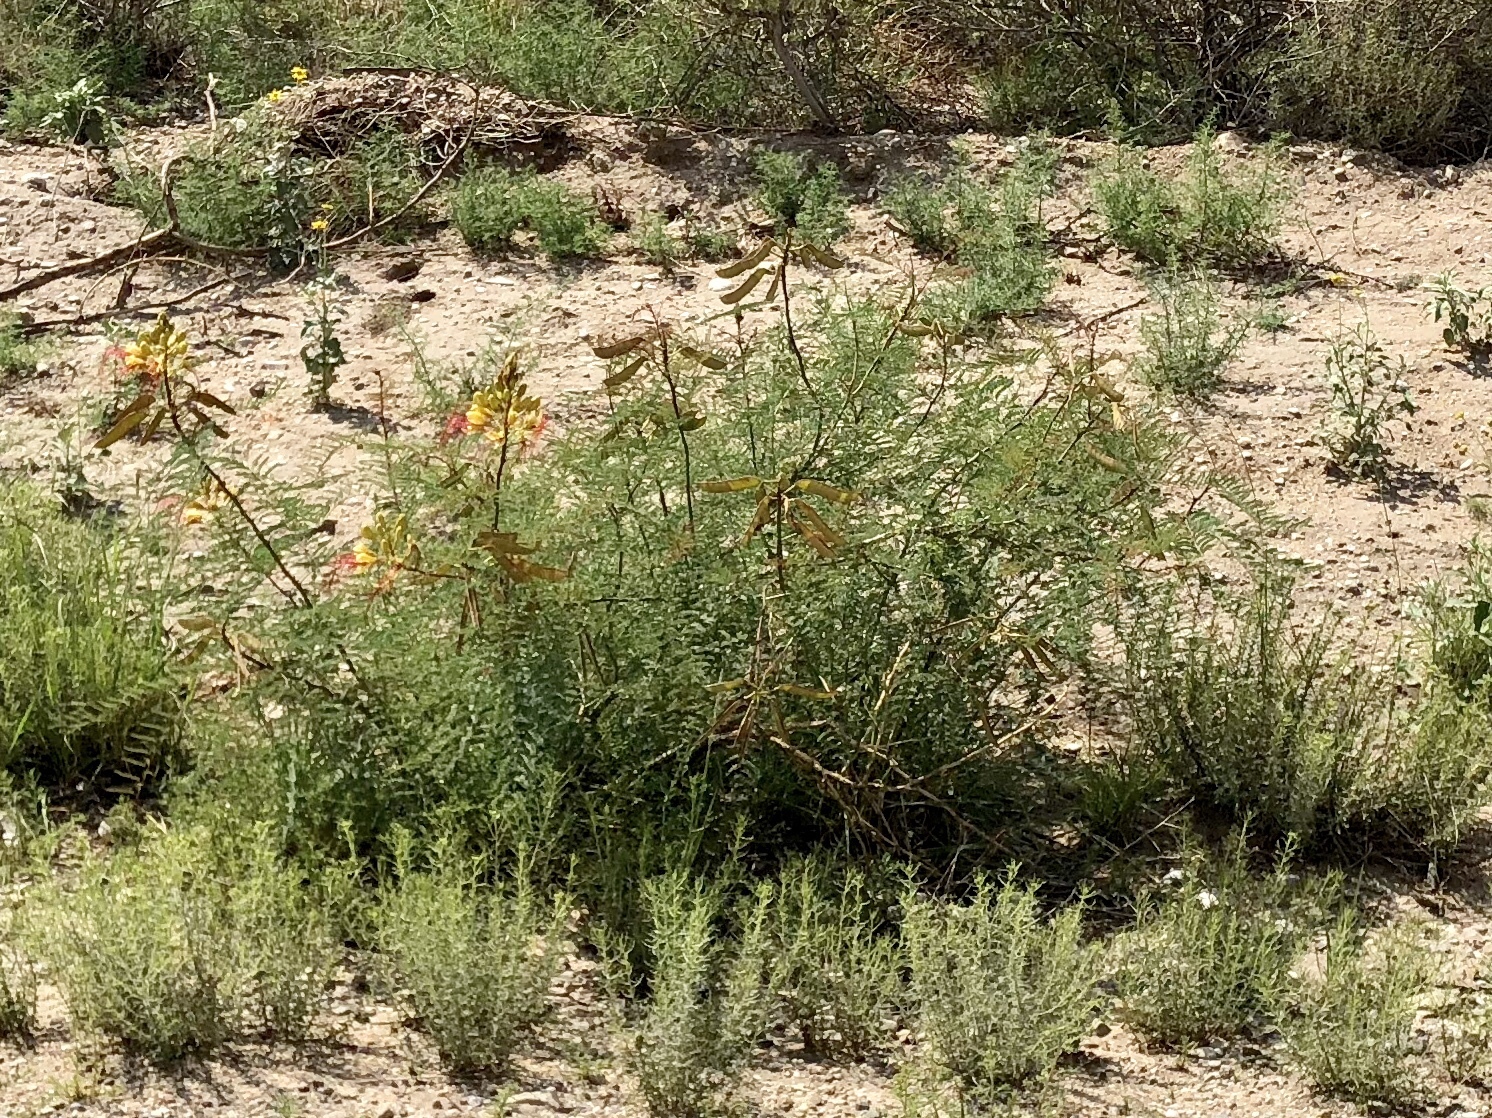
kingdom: Plantae
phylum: Tracheophyta
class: Magnoliopsida
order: Fabales
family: Fabaceae
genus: Erythrostemon
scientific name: Erythrostemon gilliesii
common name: Bird-of-paradise shrub
